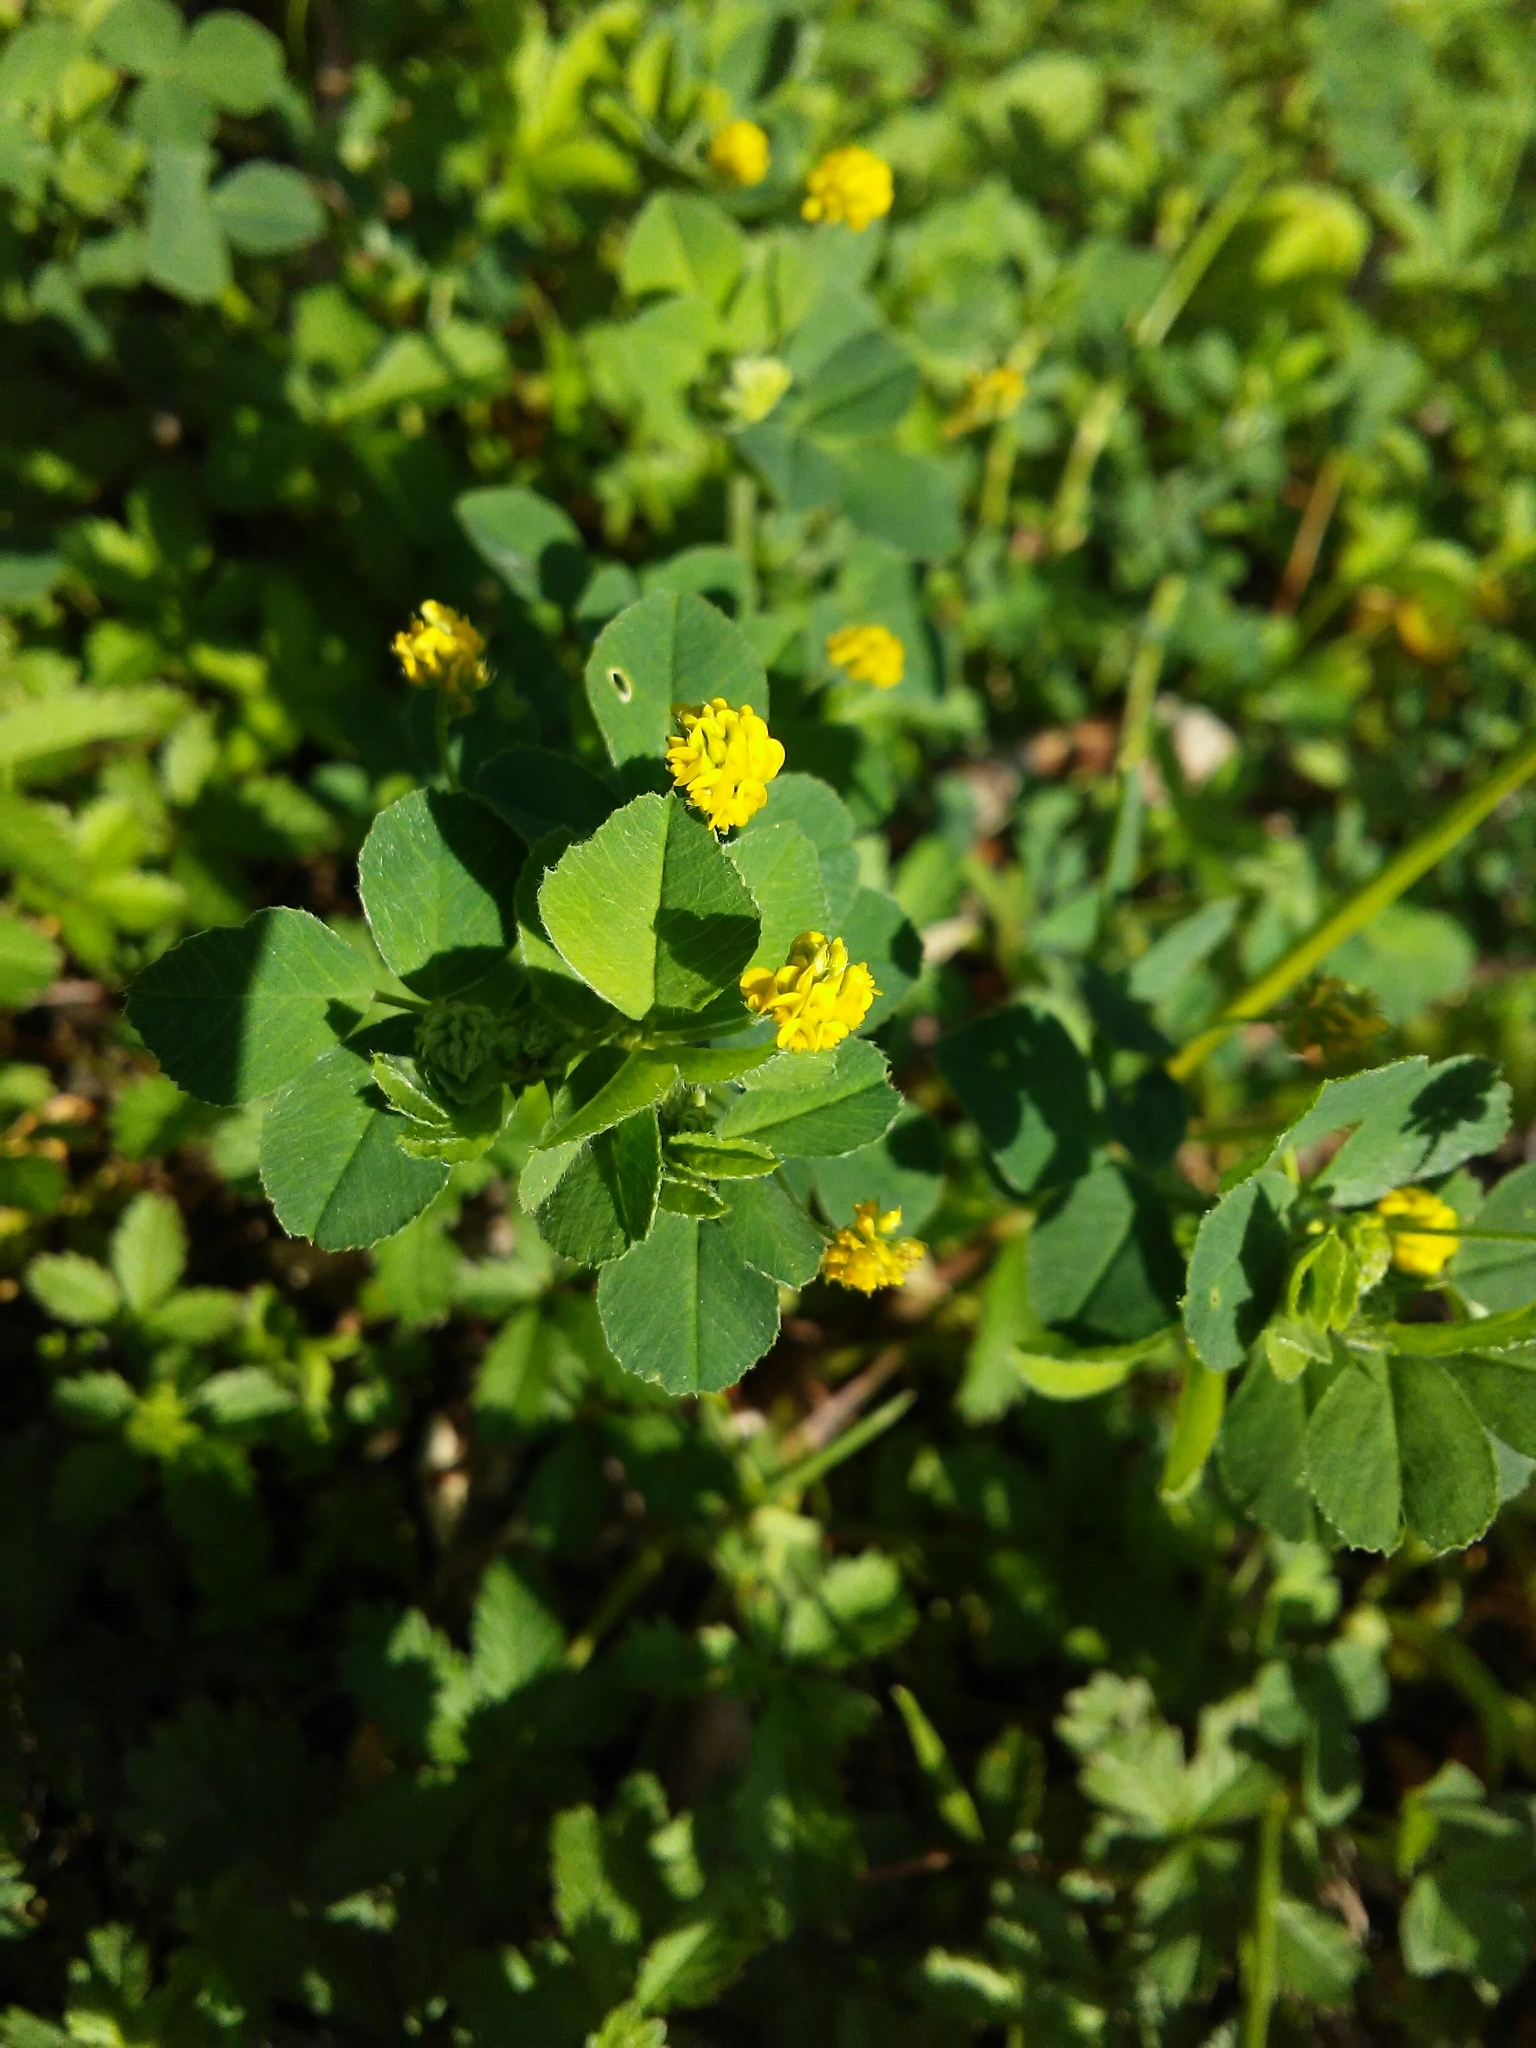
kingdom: Plantae
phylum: Tracheophyta
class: Magnoliopsida
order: Fabales
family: Fabaceae
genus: Medicago
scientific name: Medicago lupulina
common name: Black medick
